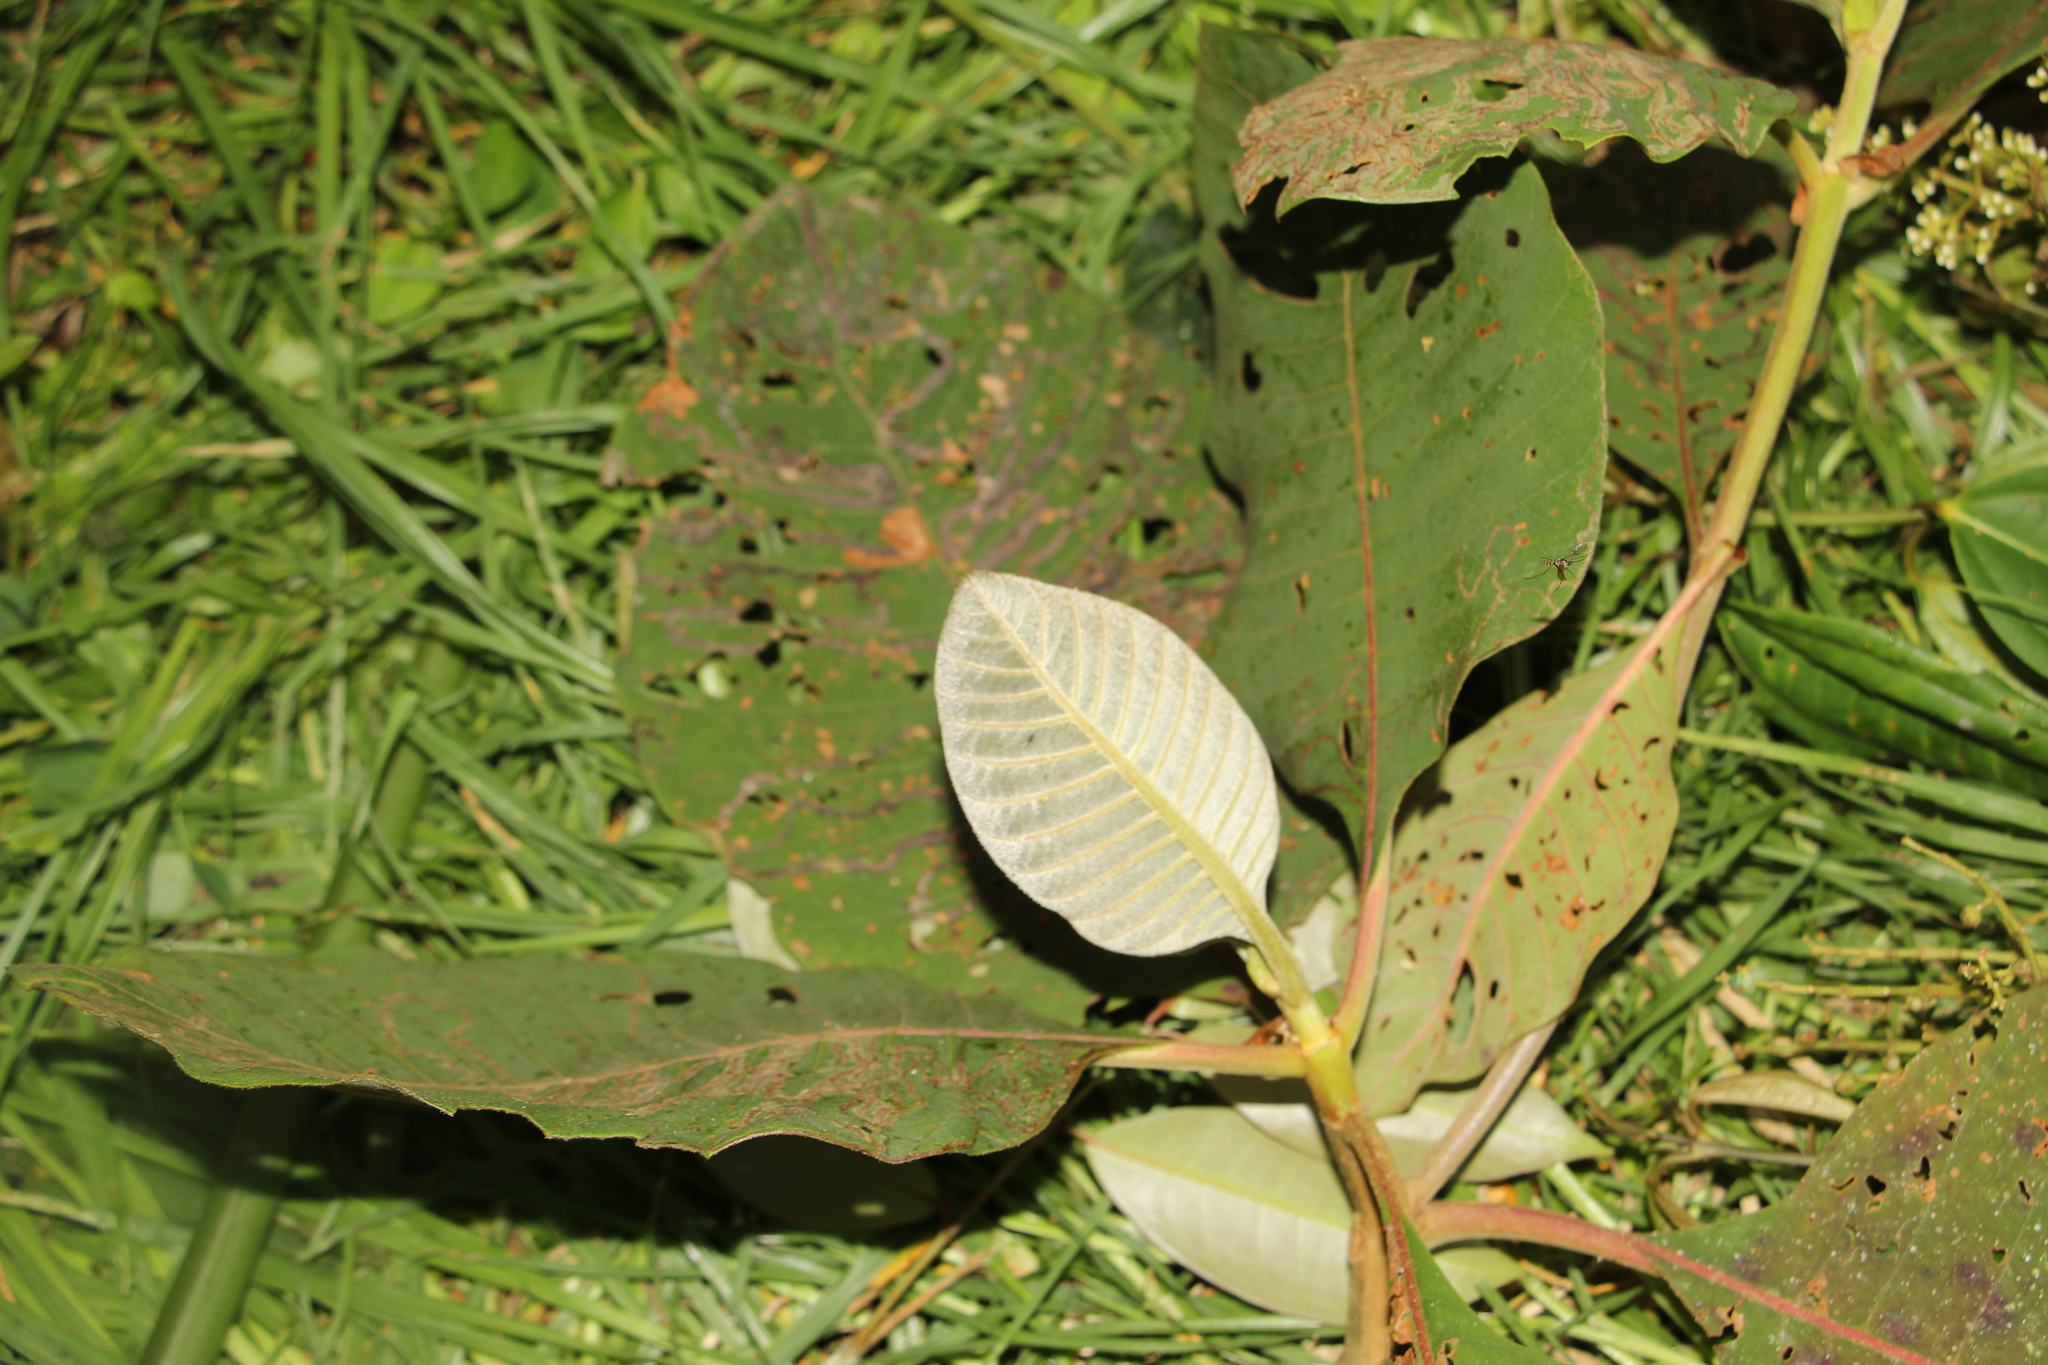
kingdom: Plantae
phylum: Tracheophyta
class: Magnoliopsida
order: Gentianales
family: Rubiaceae
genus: Cinchona
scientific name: Cinchona pubescens
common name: Quinine
